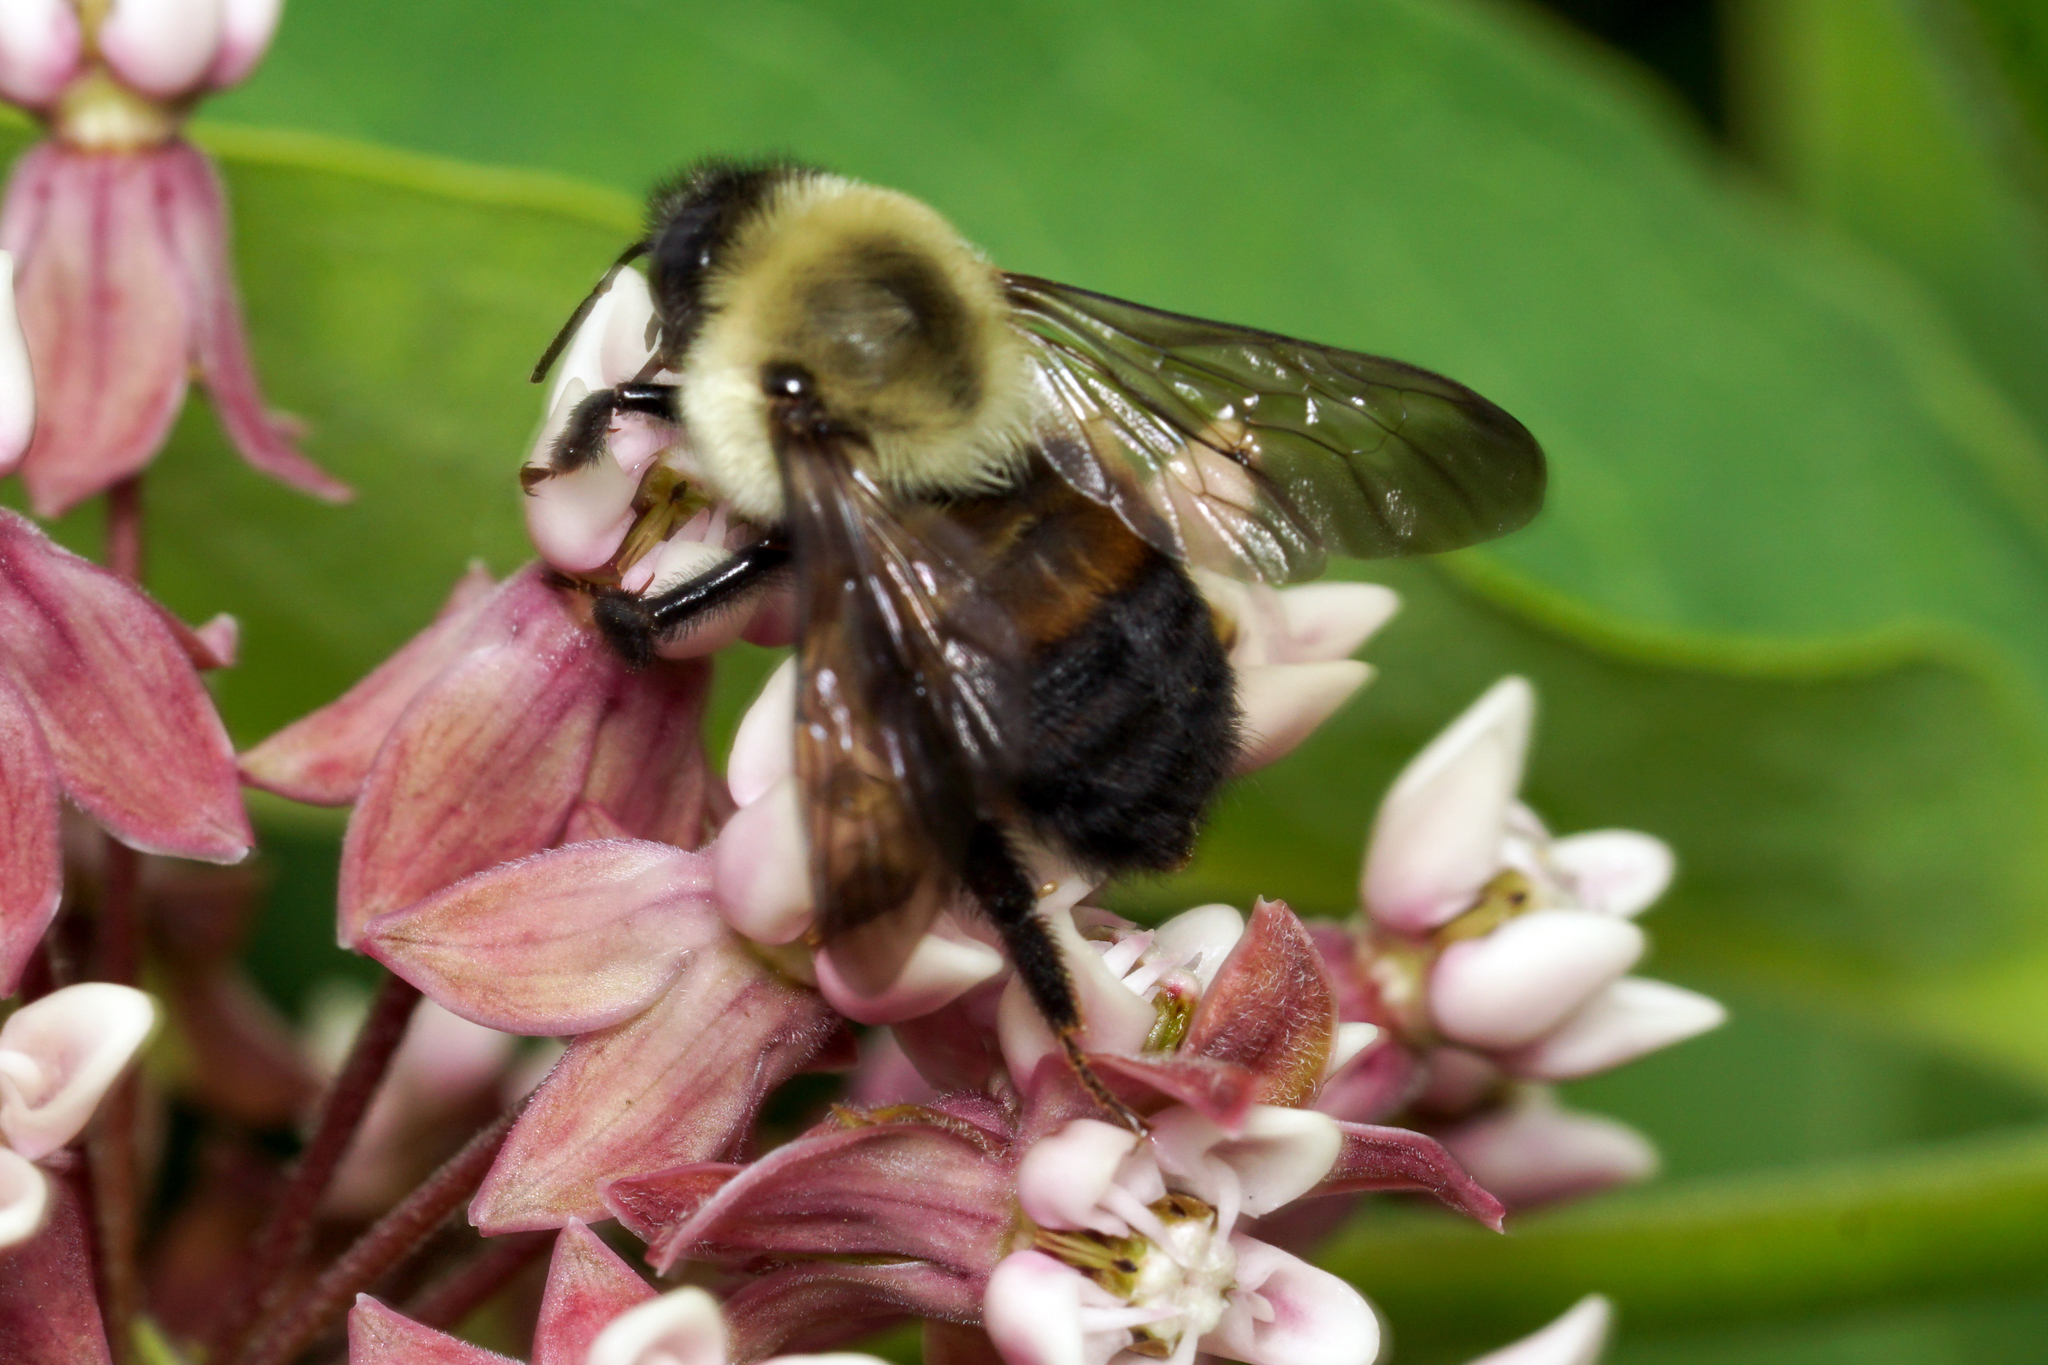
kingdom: Animalia
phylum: Arthropoda
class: Insecta
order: Hymenoptera
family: Apidae
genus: Bombus
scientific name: Bombus griseocollis
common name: Brown-belted bumble bee
